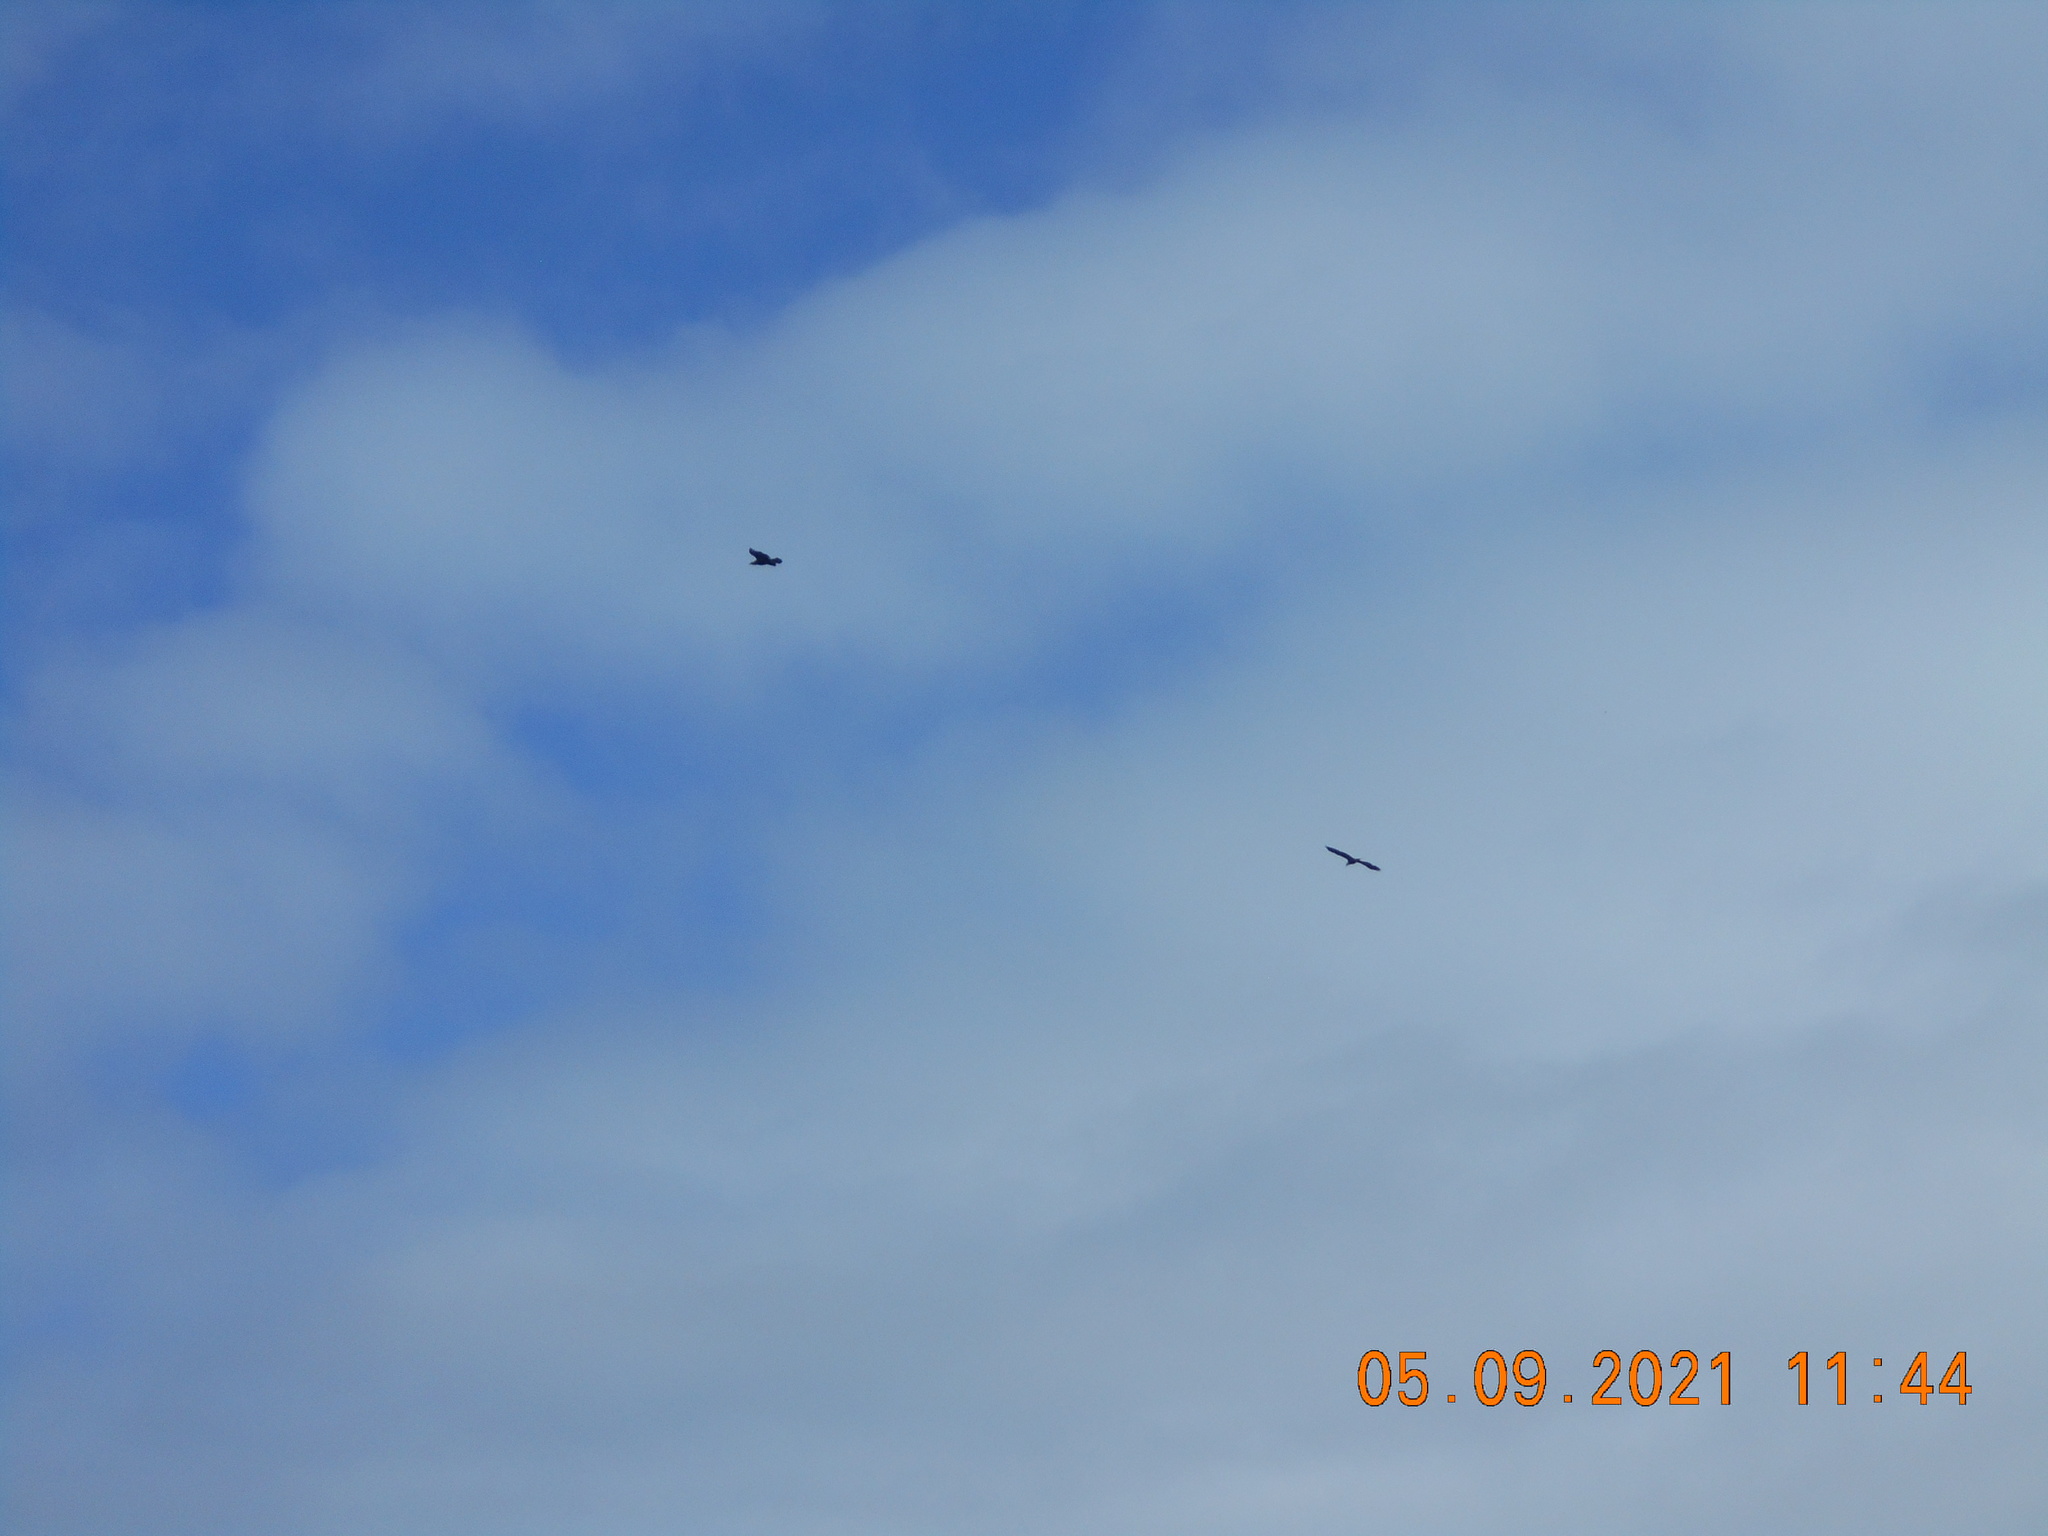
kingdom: Animalia
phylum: Chordata
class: Aves
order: Accipitriformes
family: Accipitridae
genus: Haliaeetus
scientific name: Haliaeetus leucocephalus
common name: Bald eagle
